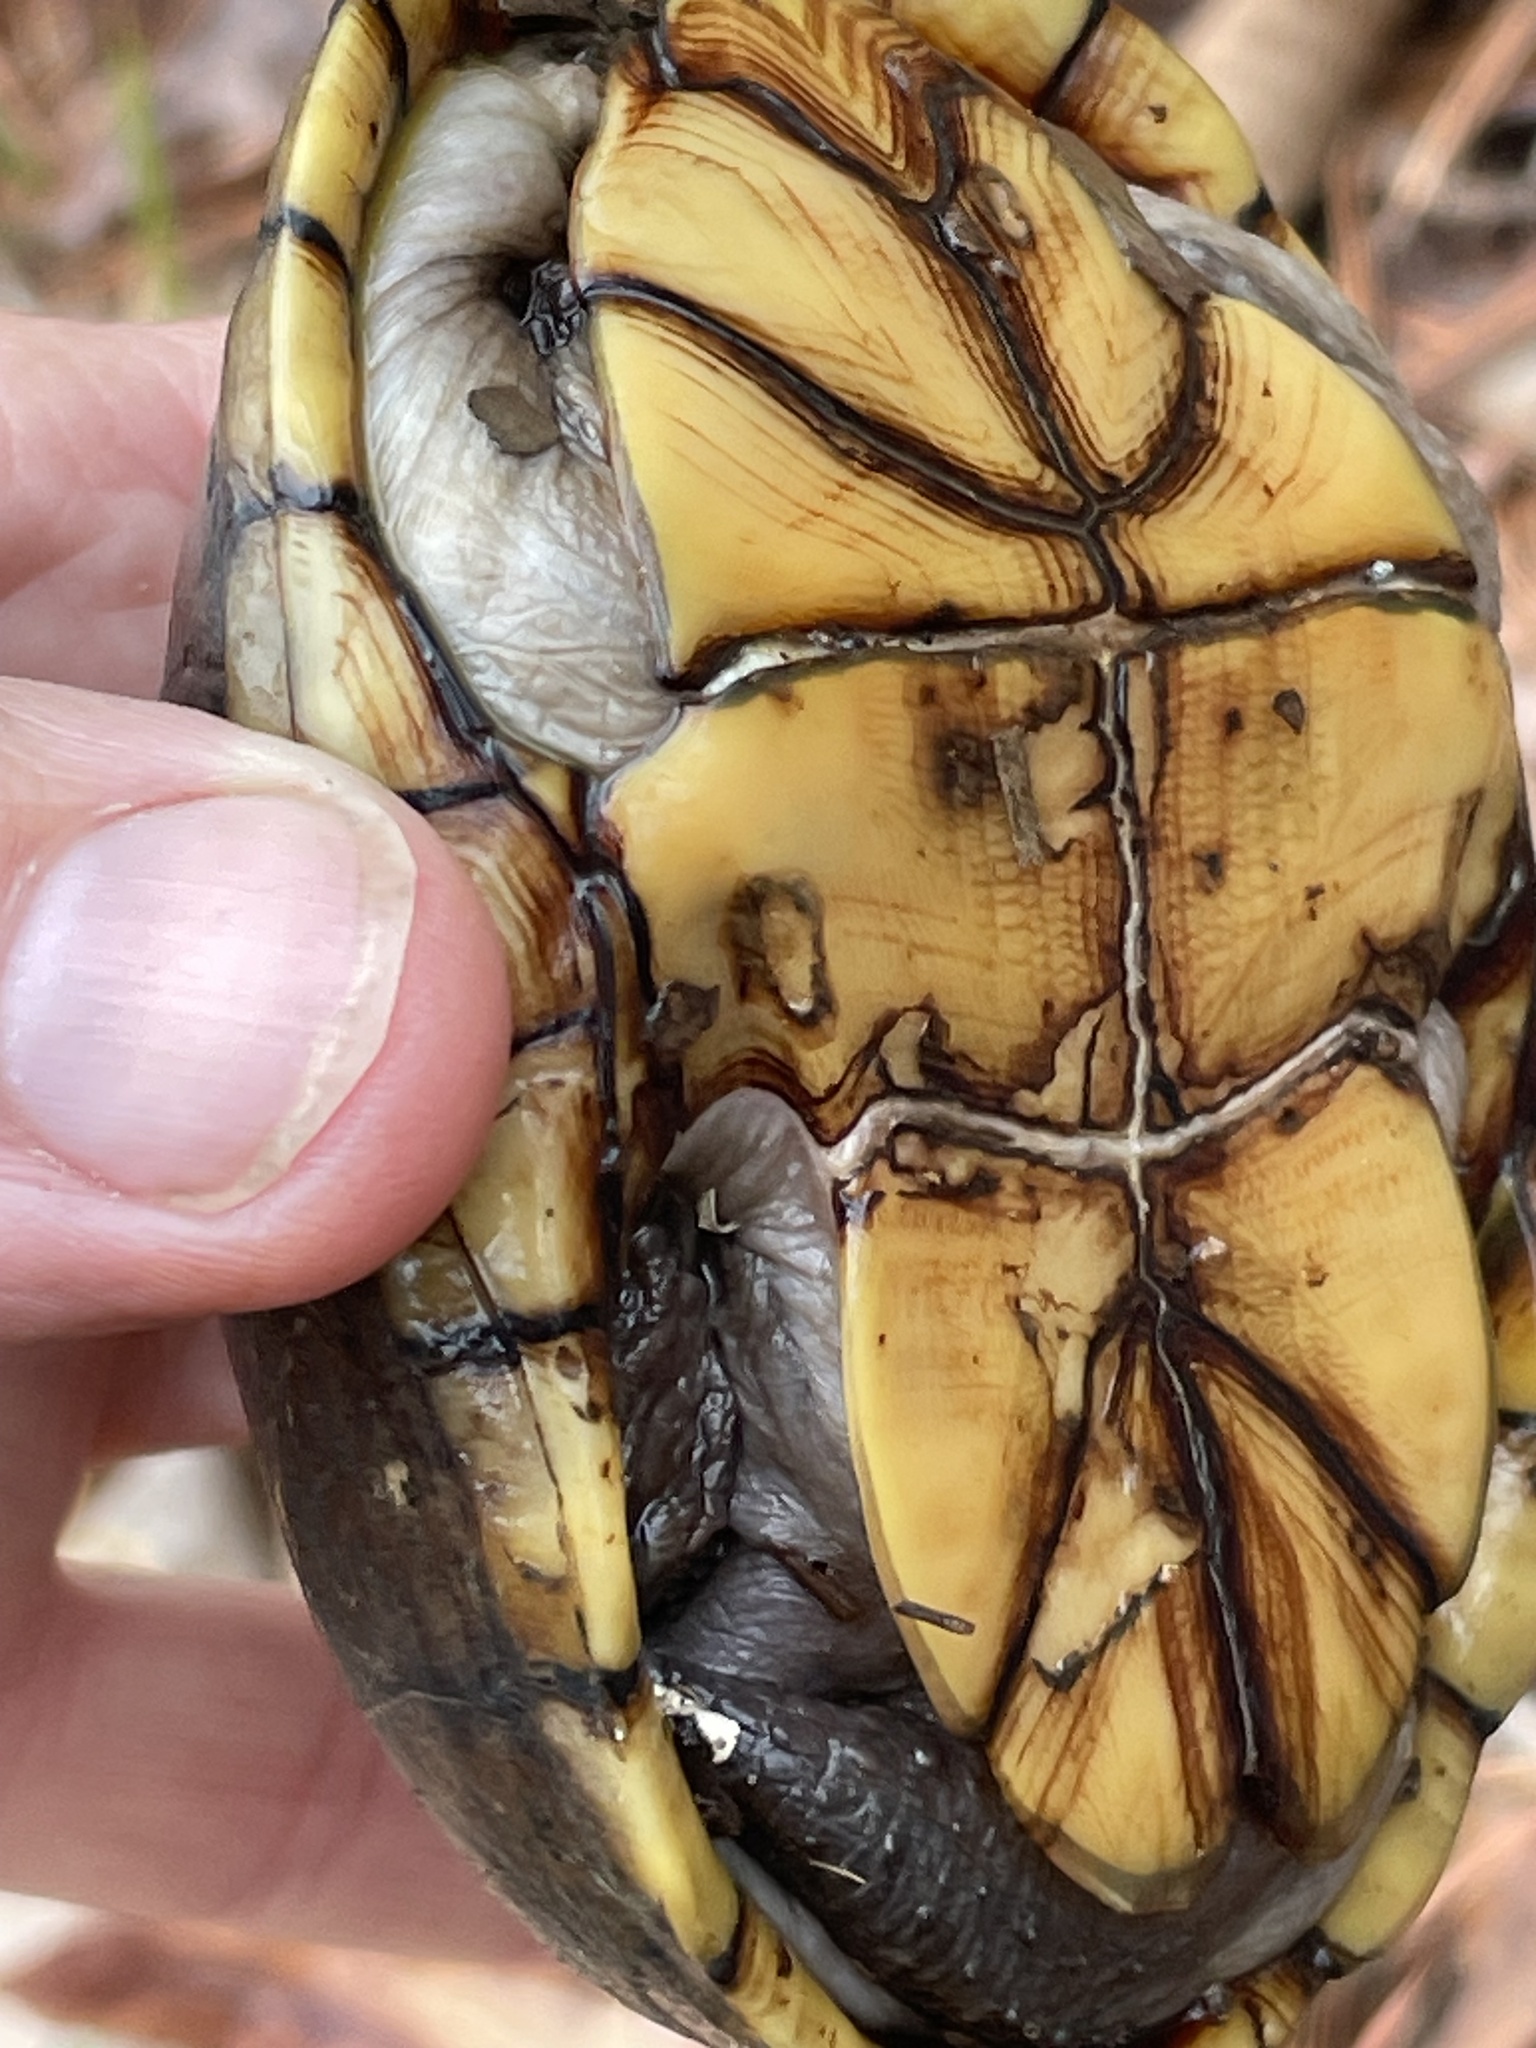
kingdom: Animalia
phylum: Chordata
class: Testudines
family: Kinosternidae
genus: Kinosternon
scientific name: Kinosternon subrubrum
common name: Eastern mud turtle
